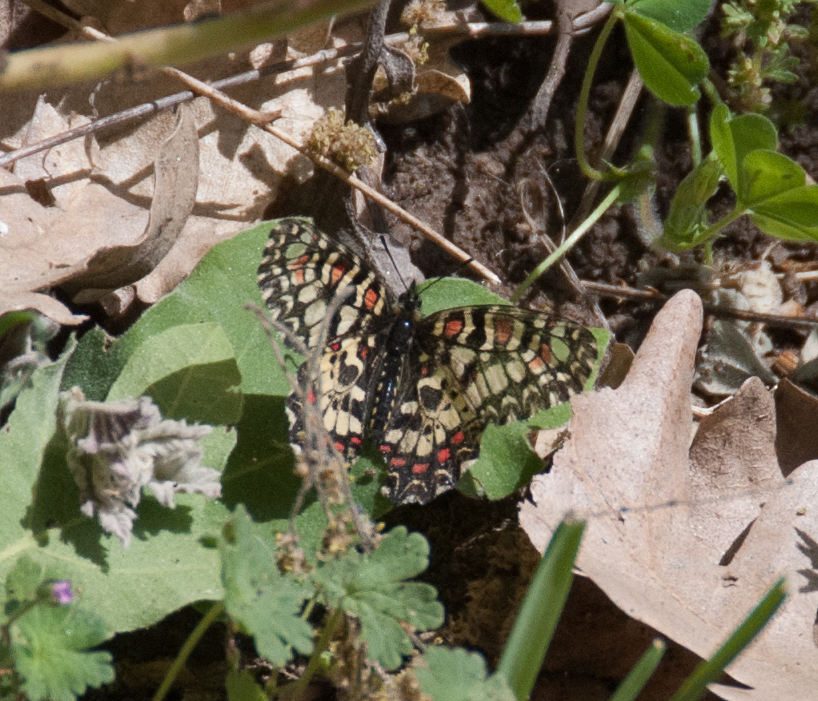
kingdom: Animalia
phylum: Arthropoda
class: Insecta
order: Lepidoptera
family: Papilionidae
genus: Zerynthia
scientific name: Zerynthia rumina
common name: Spanish festoon
